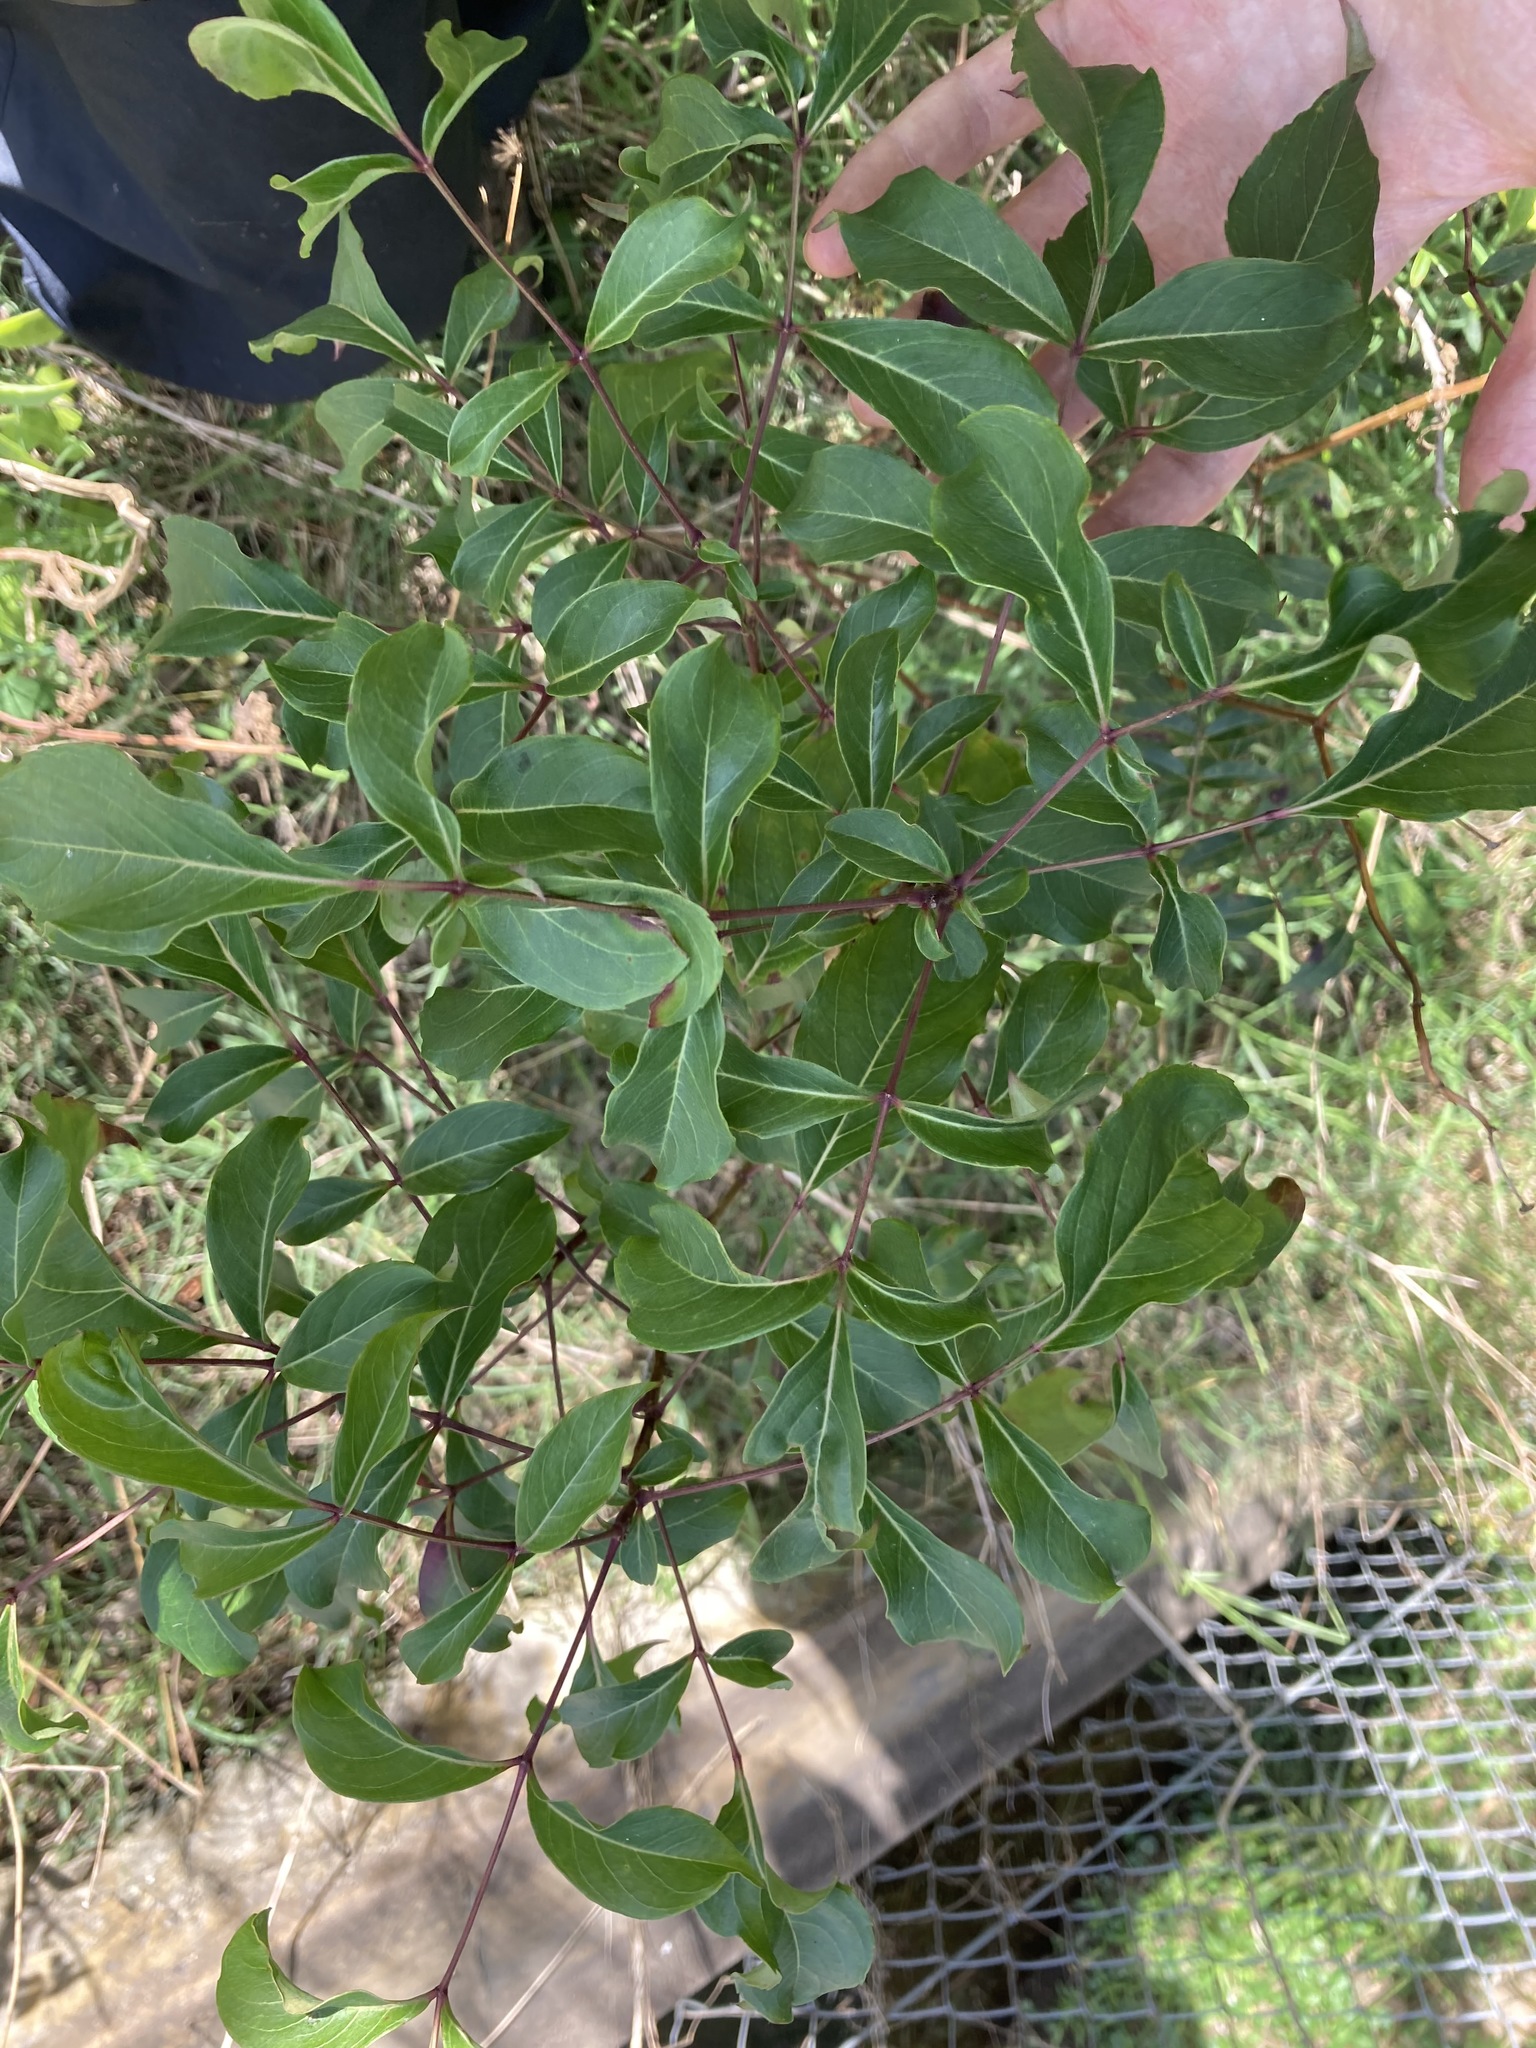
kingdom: Plantae
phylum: Tracheophyta
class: Magnoliopsida
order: Apiales
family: Araliaceae
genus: Polyscias
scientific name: Polyscias sambucifolia
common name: Elderberry-ash
